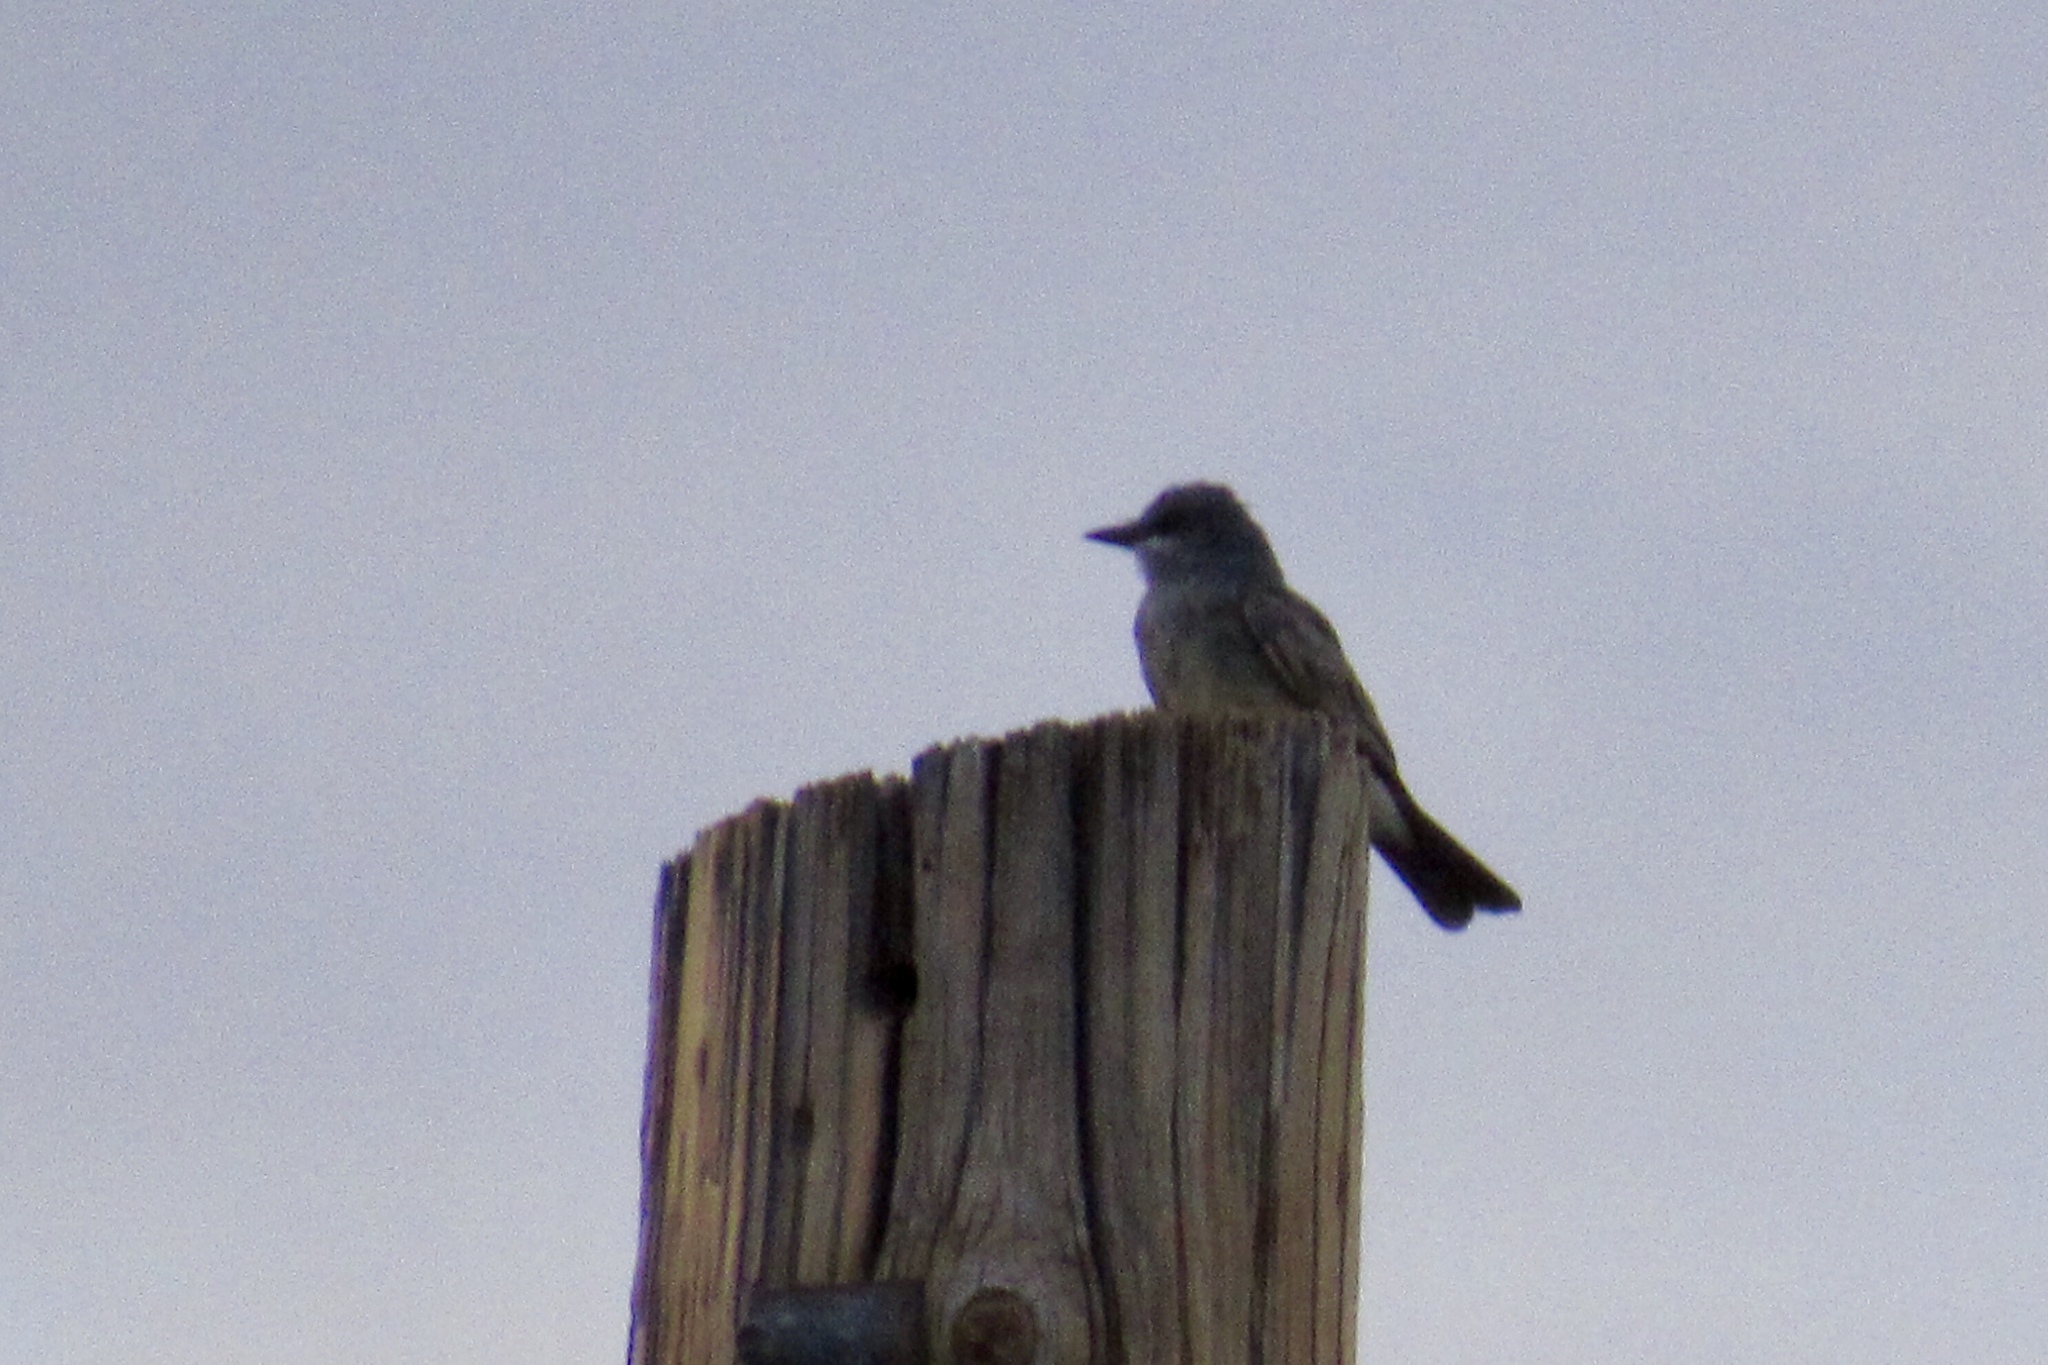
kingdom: Animalia
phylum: Chordata
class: Aves
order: Passeriformes
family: Tyrannidae
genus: Tyrannus
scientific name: Tyrannus vociferans
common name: Cassin's kingbird
